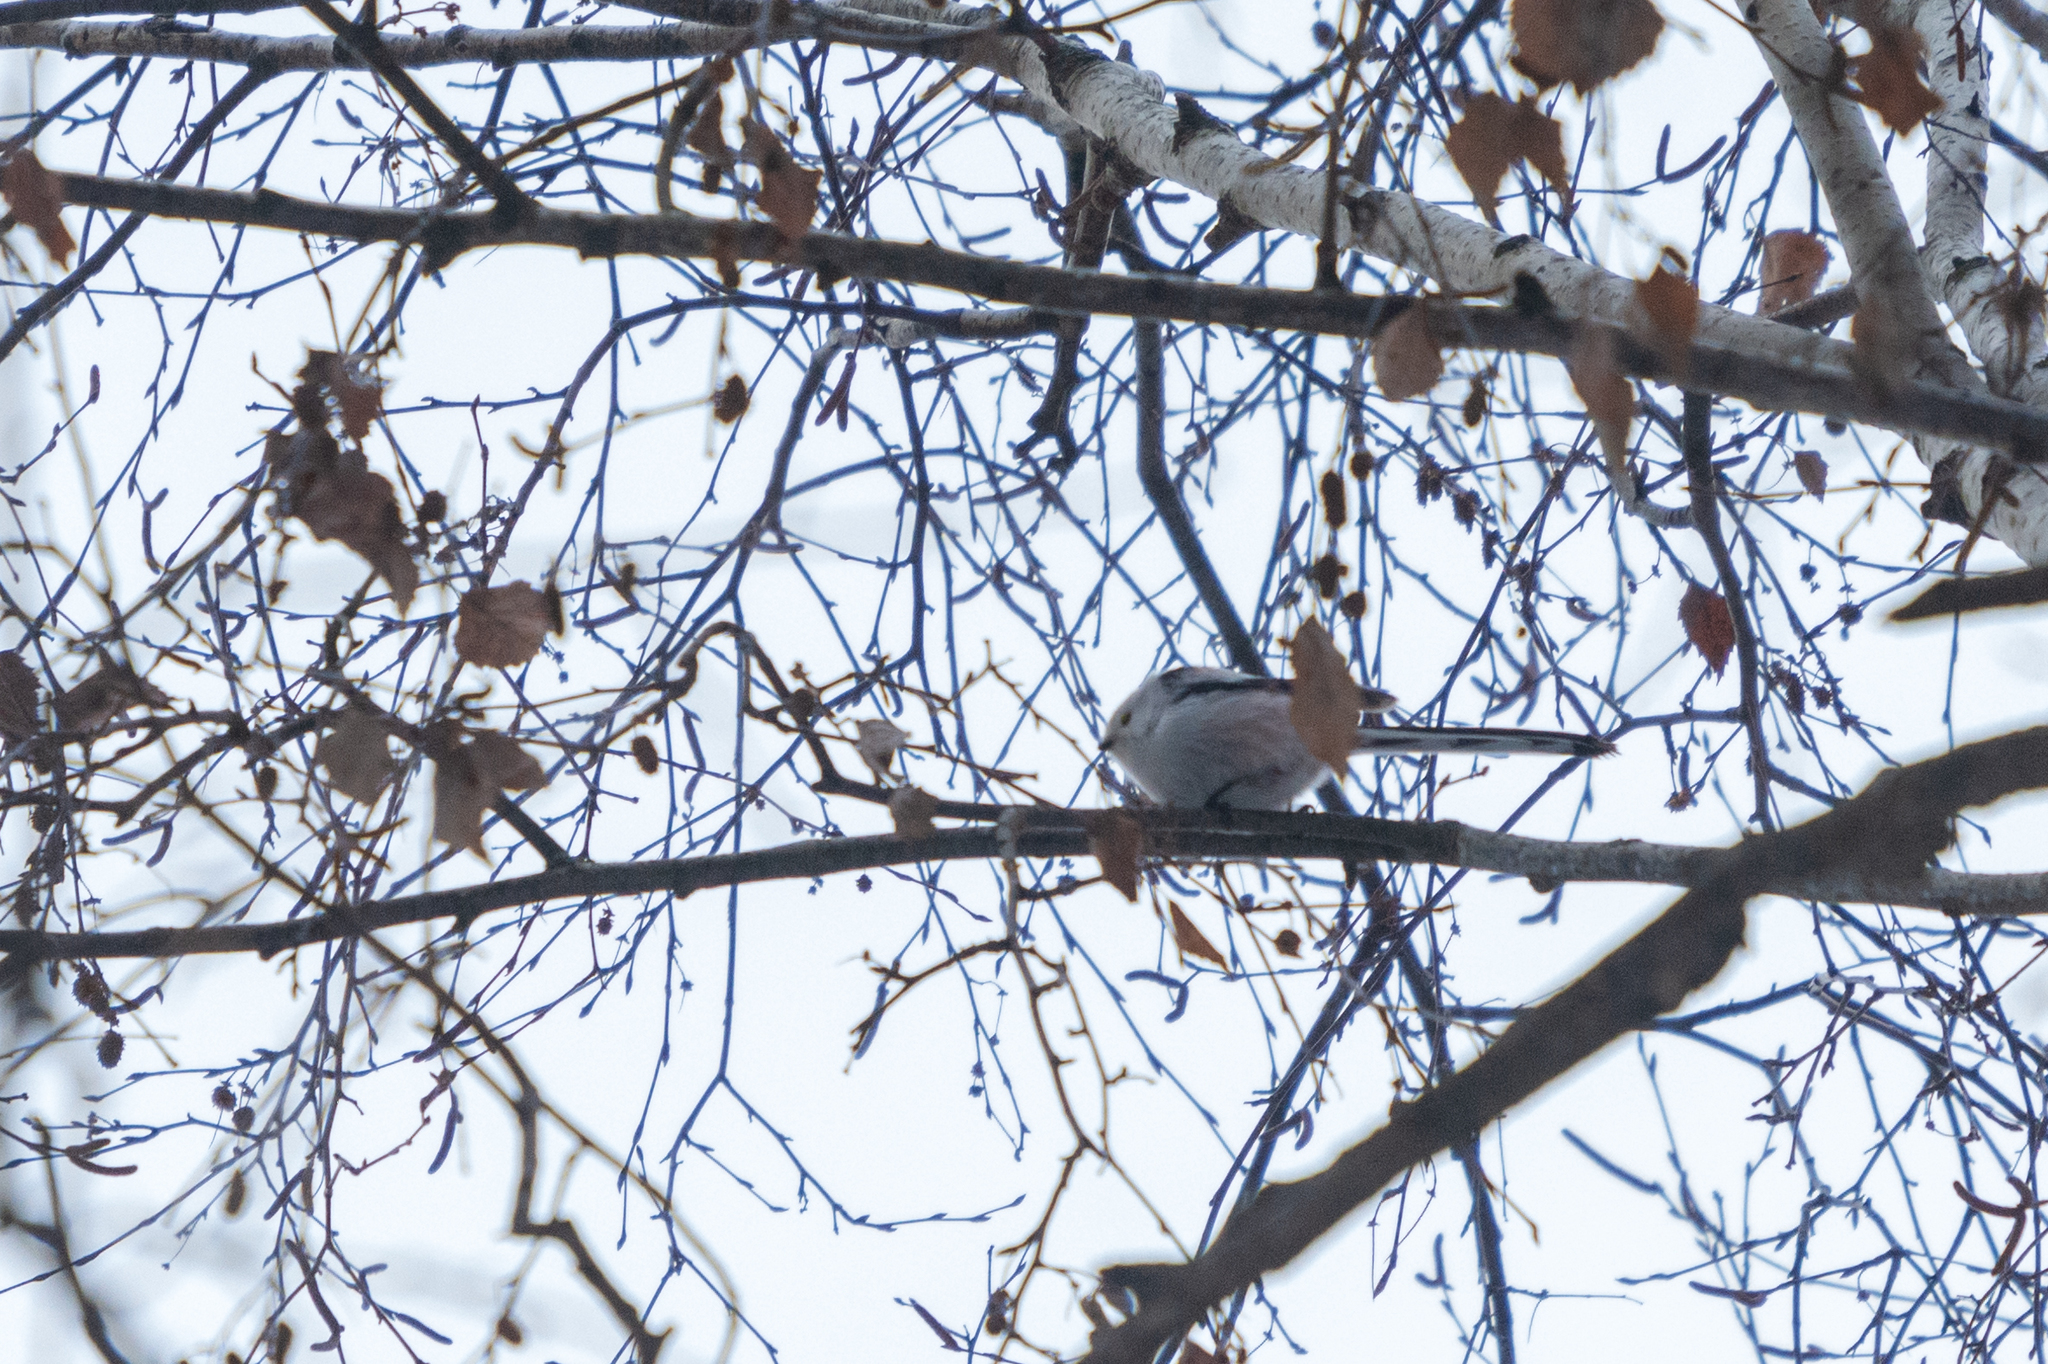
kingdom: Animalia
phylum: Chordata
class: Aves
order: Passeriformes
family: Aegithalidae
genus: Aegithalos
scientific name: Aegithalos caudatus
